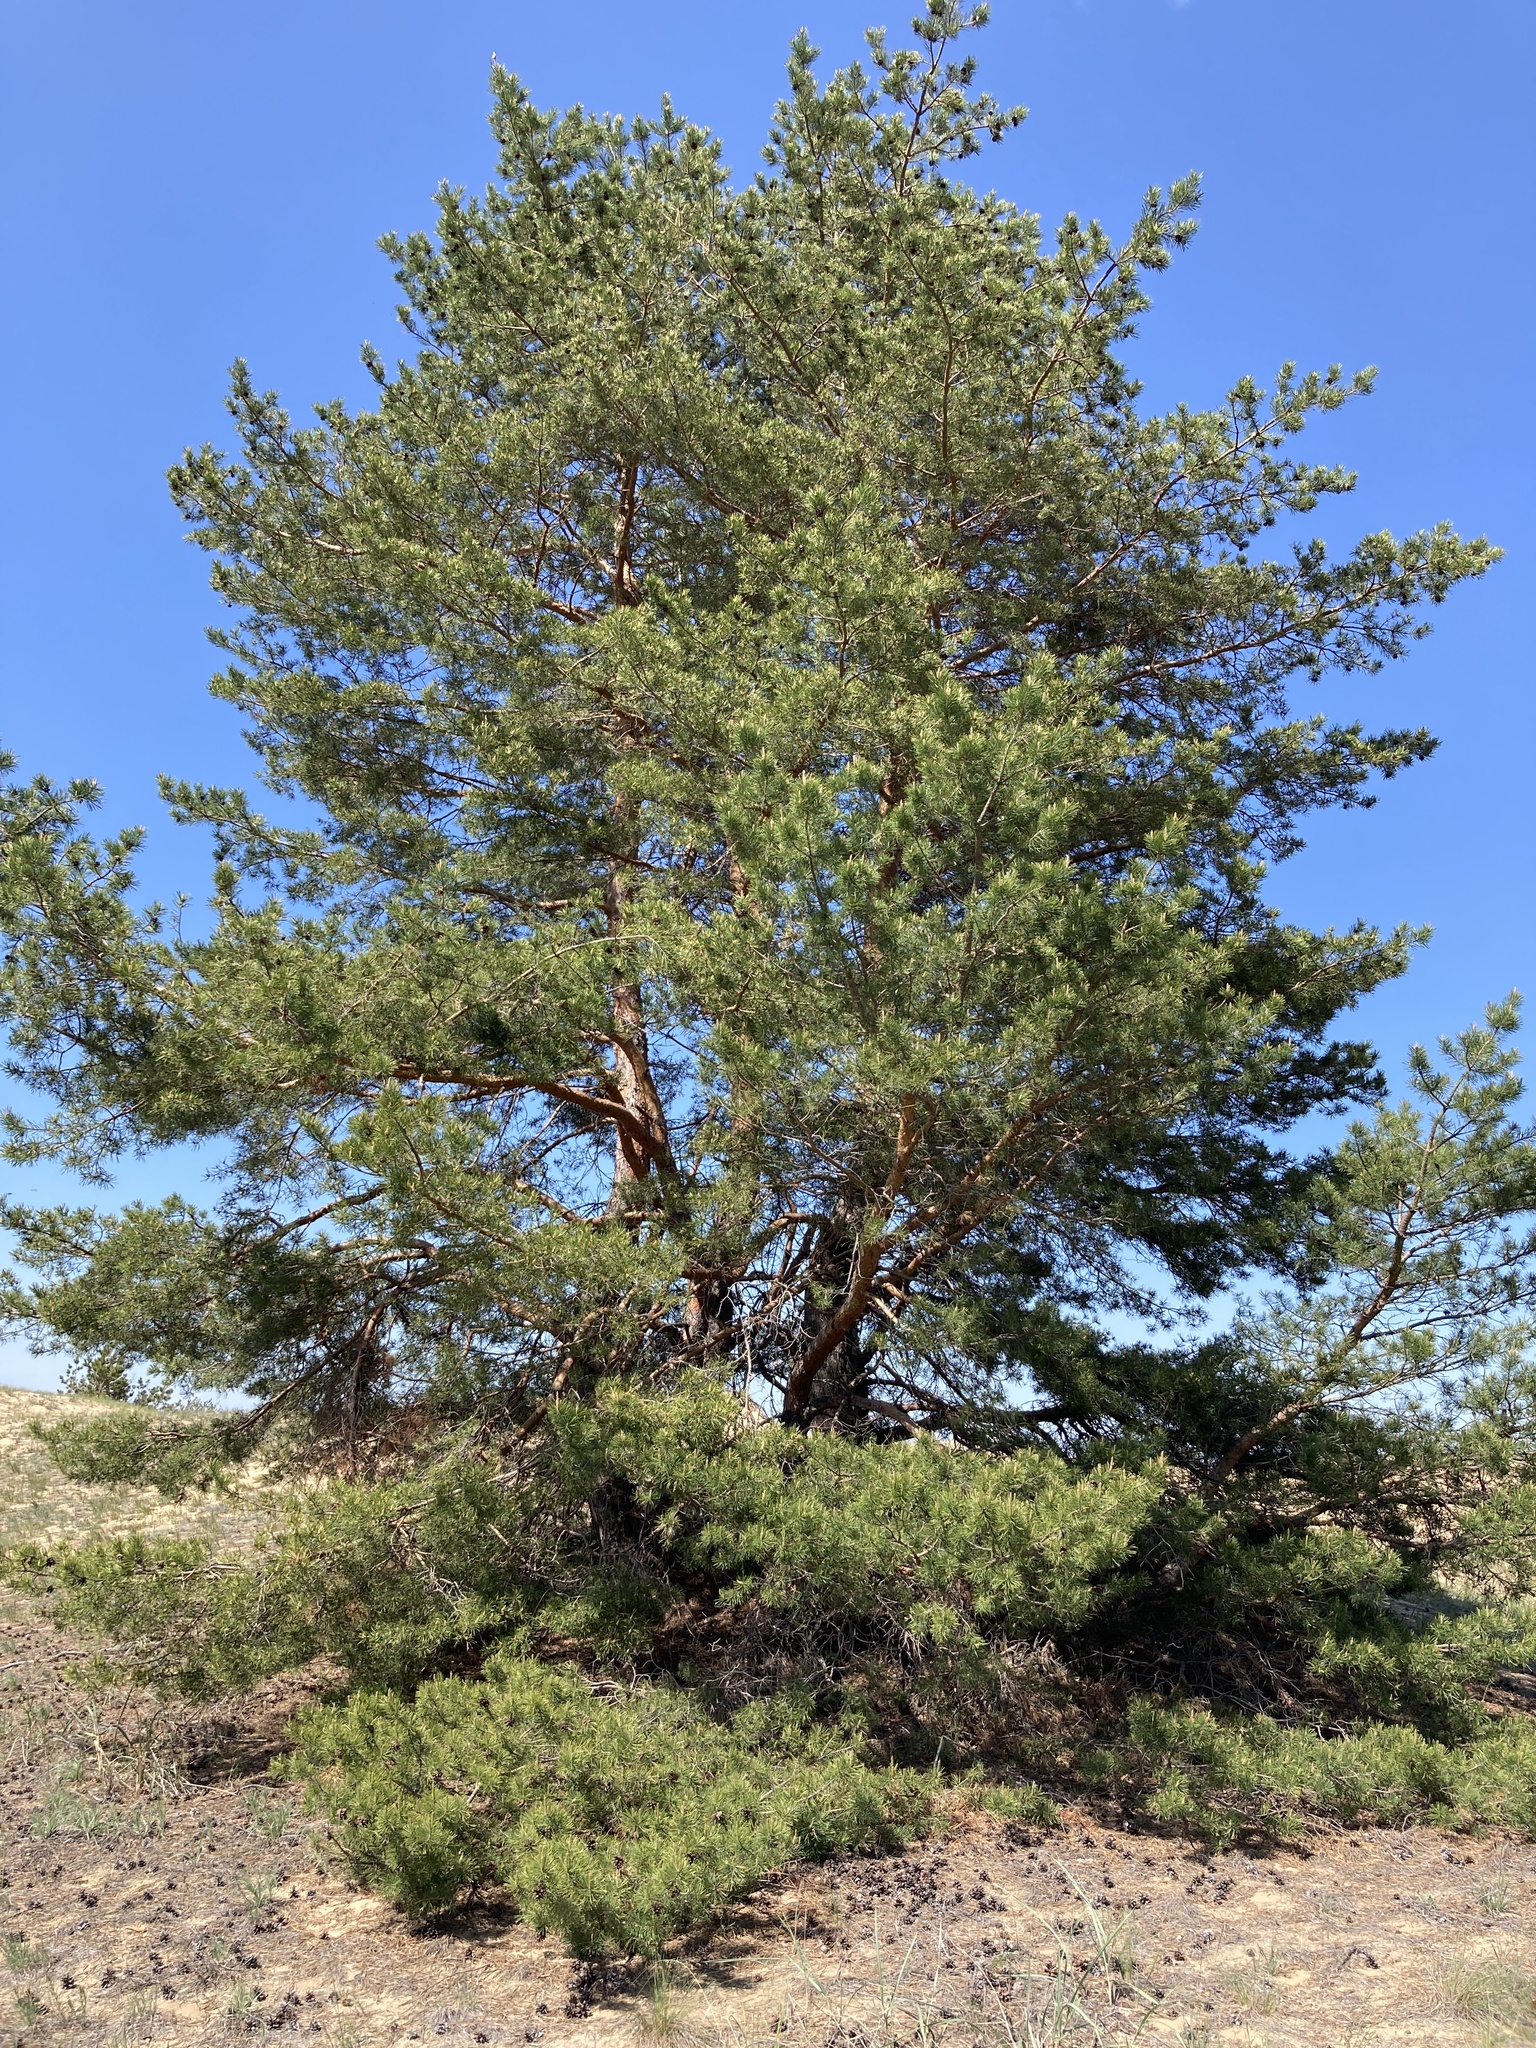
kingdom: Plantae
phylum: Tracheophyta
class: Pinopsida
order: Pinales
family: Pinaceae
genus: Pinus
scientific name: Pinus sylvestris
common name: Scots pine
